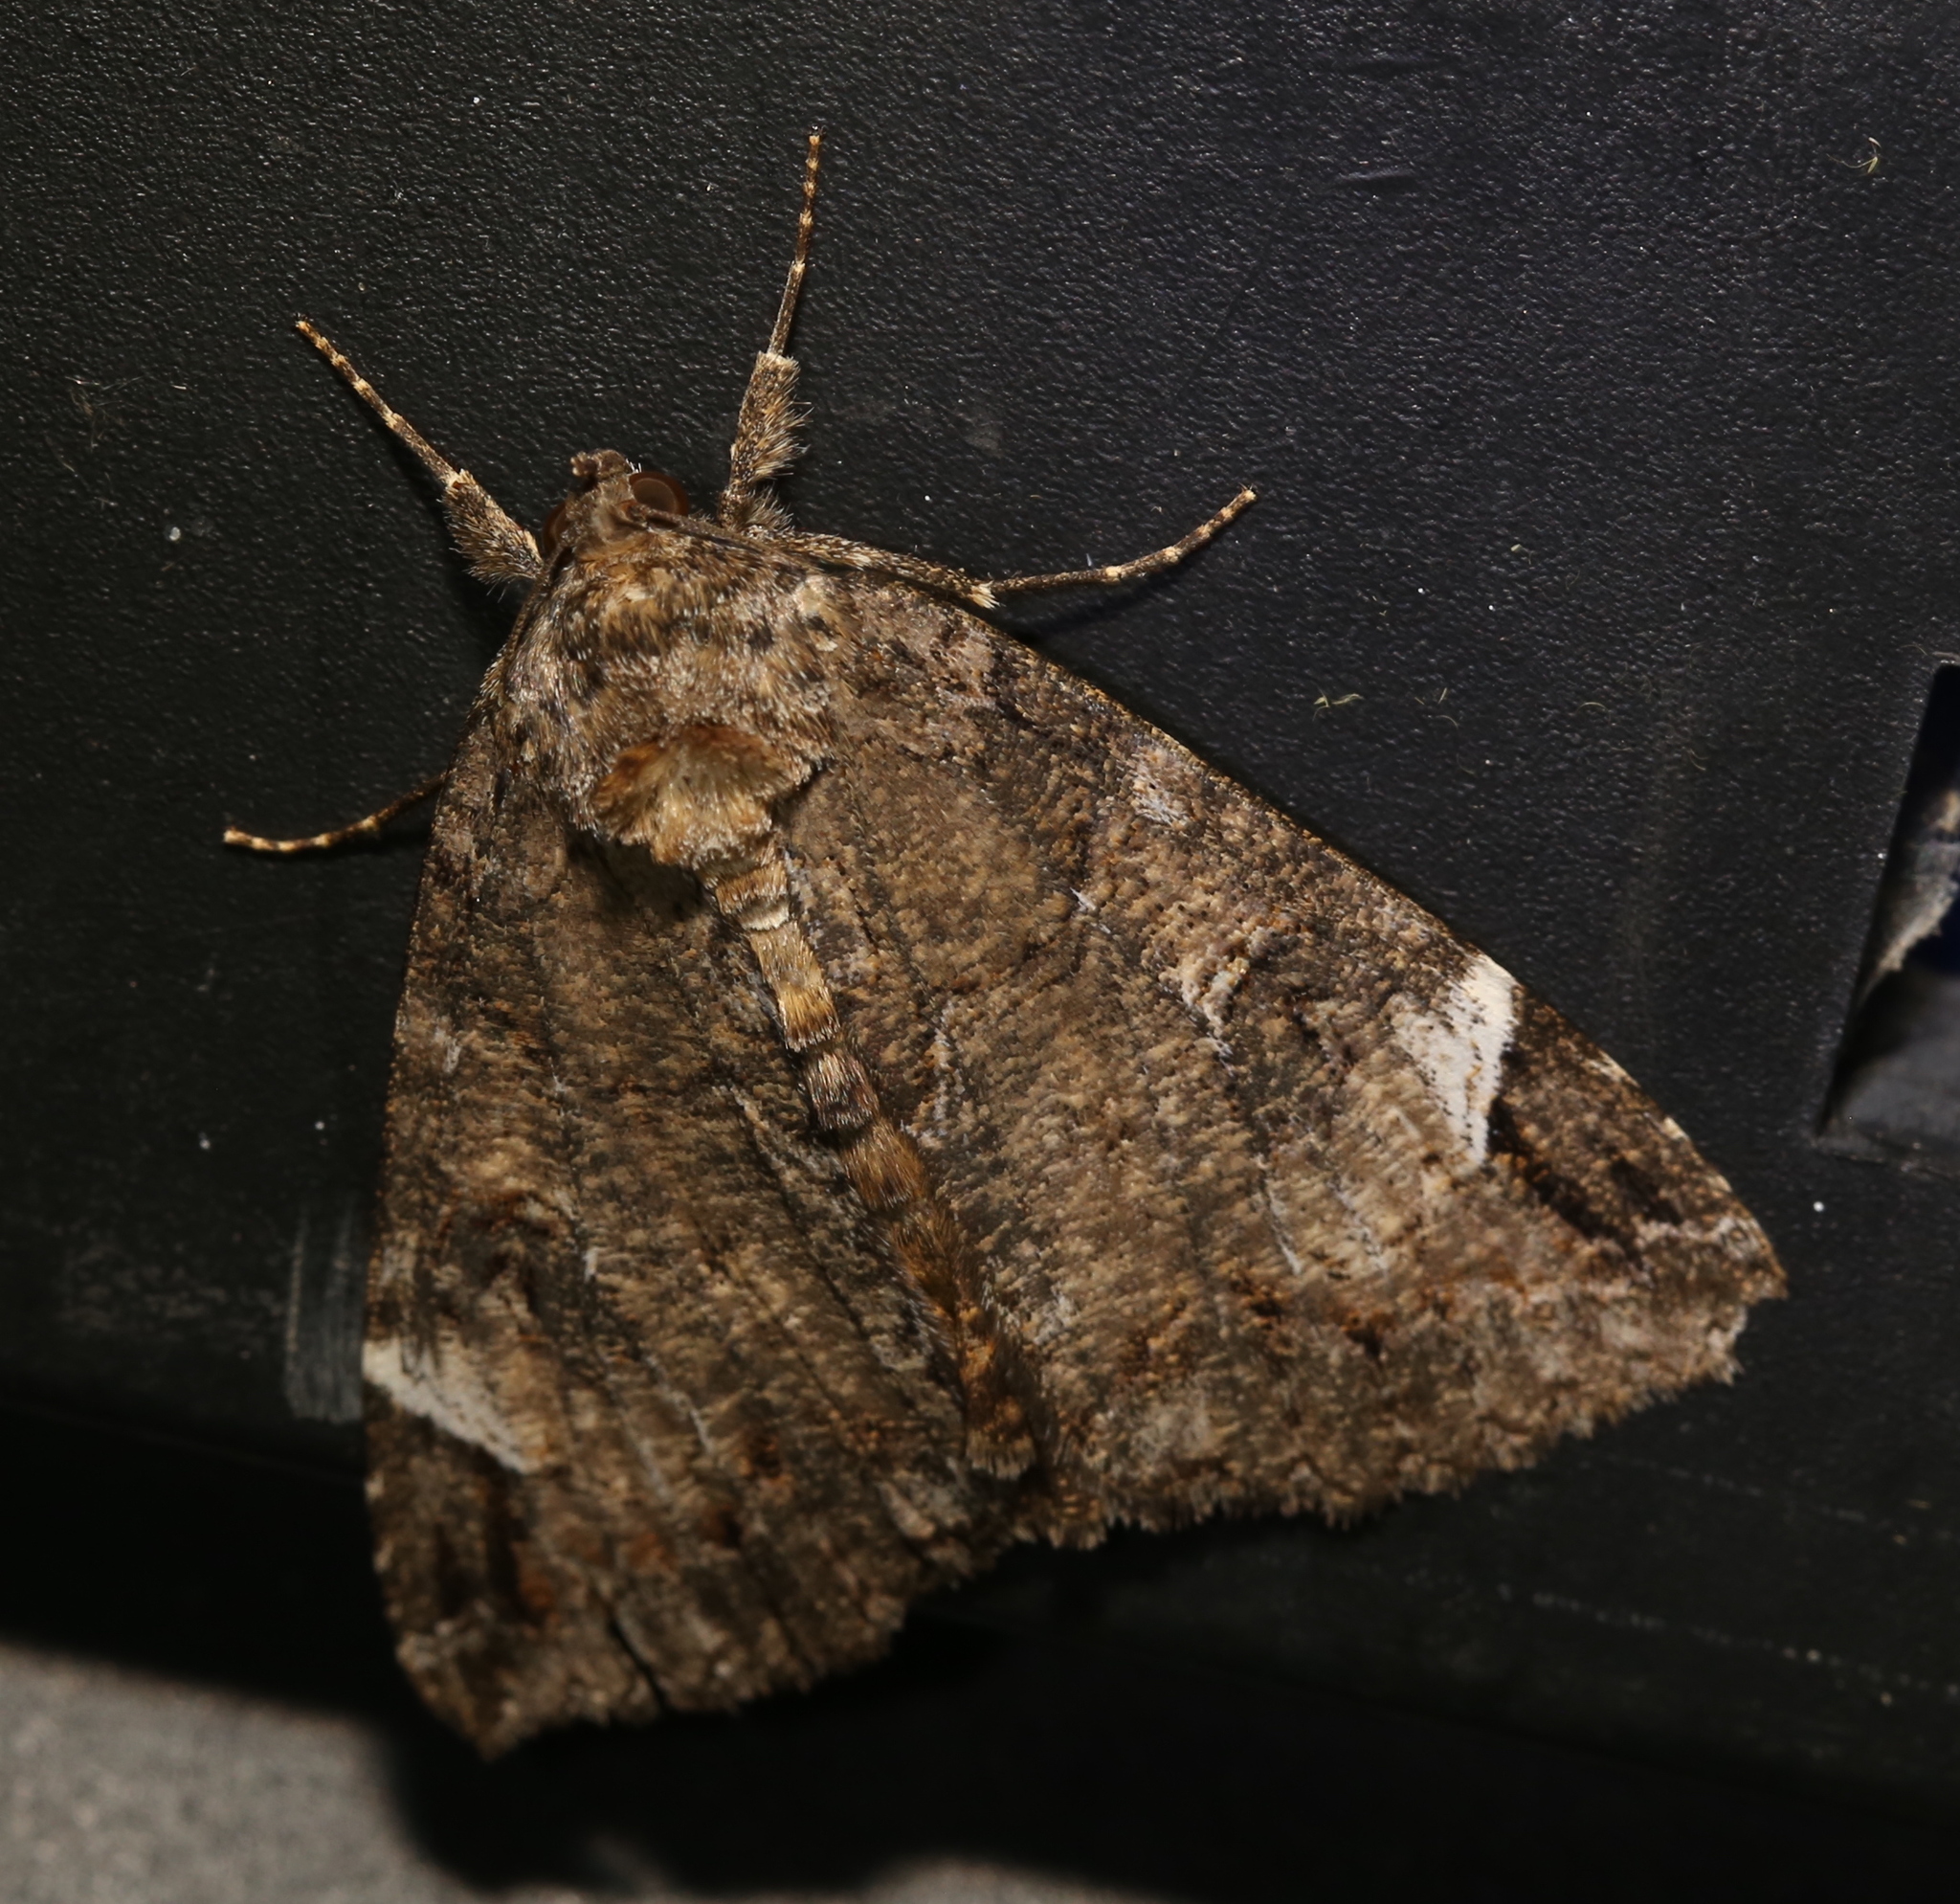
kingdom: Animalia
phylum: Arthropoda
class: Insecta
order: Lepidoptera
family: Erebidae
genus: Euparthenos
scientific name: Euparthenos nubilis
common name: Locust underwing
